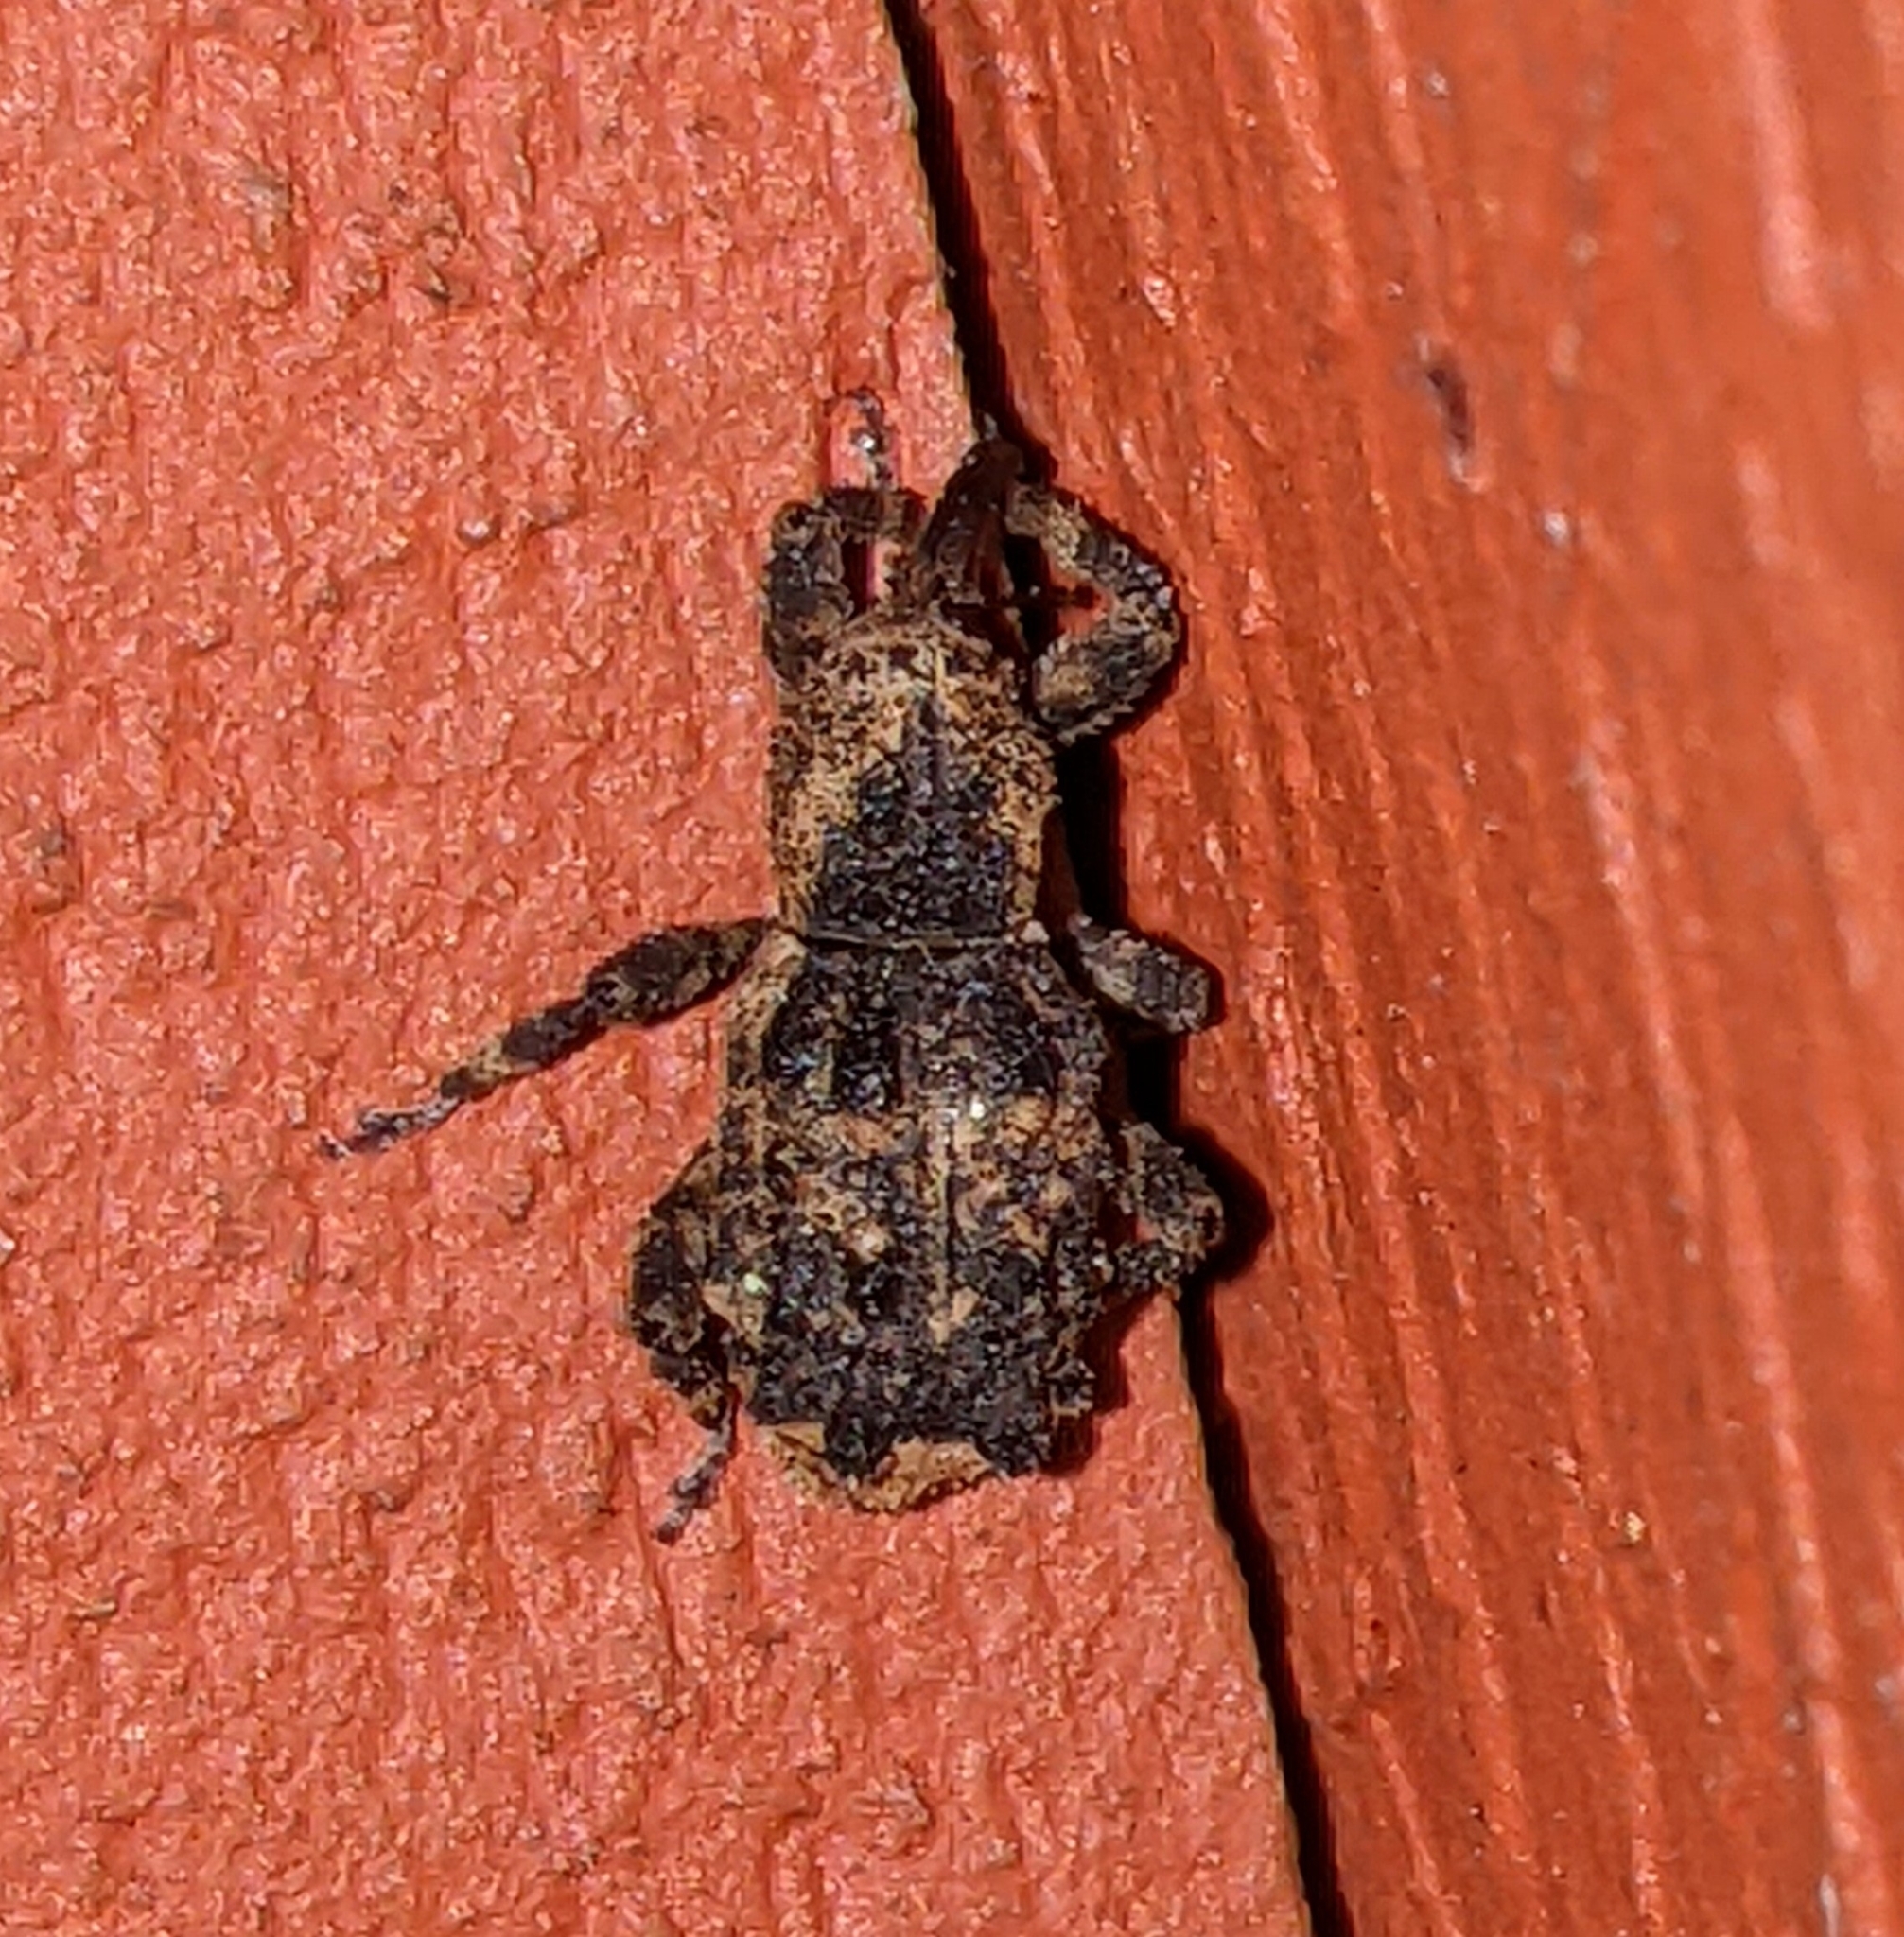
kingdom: Animalia
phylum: Arthropoda
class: Insecta
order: Coleoptera
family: Curculionidae
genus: Aparopion
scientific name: Aparopion horridus
